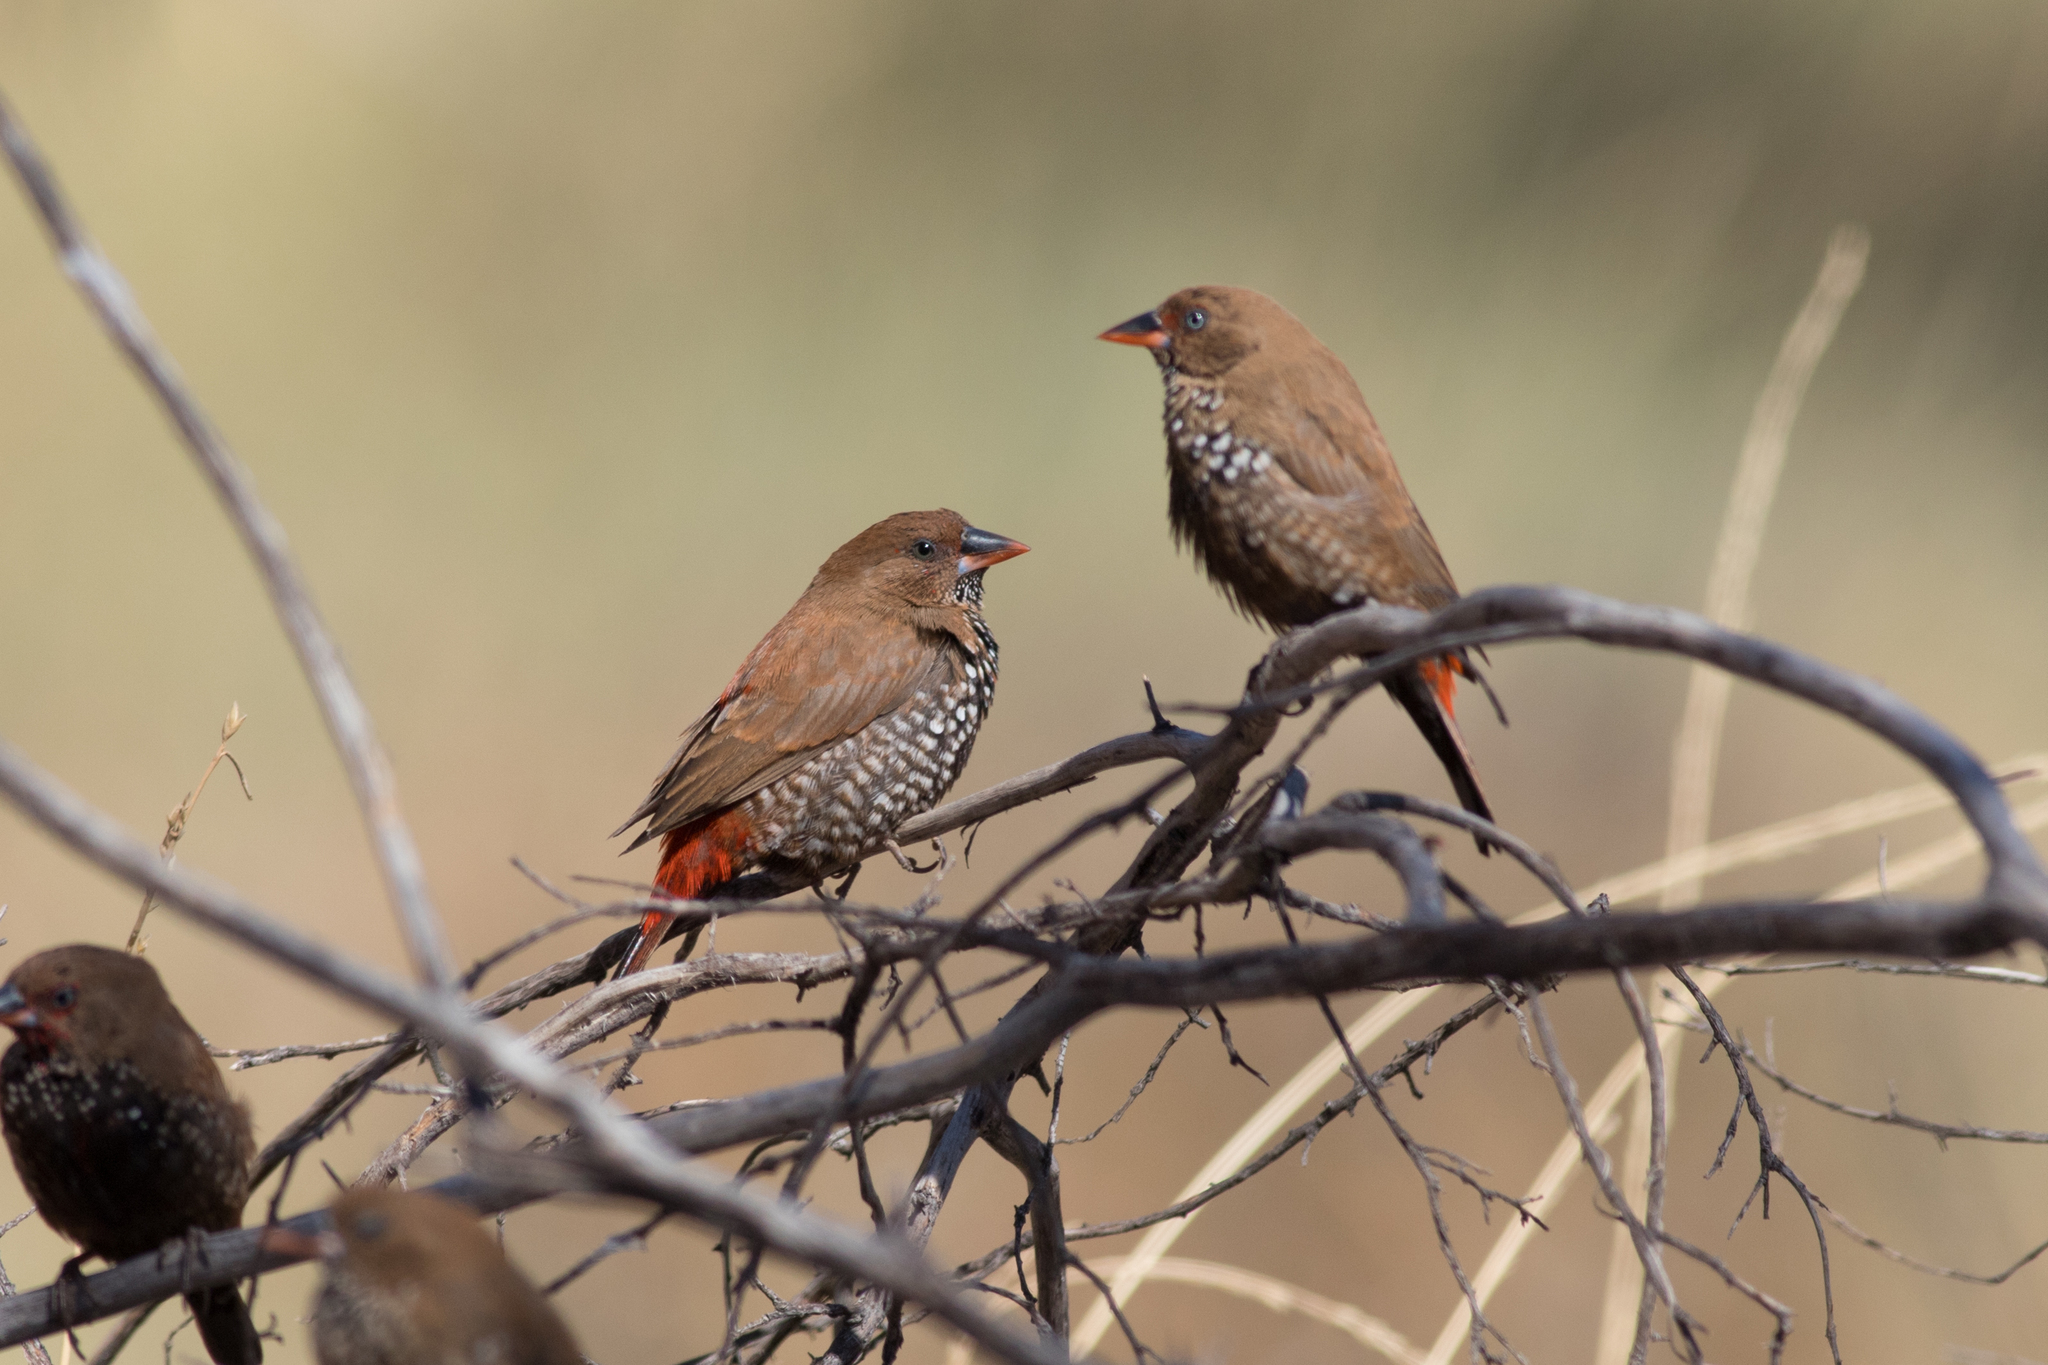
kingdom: Animalia
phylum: Chordata
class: Aves
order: Passeriformes
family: Estrildidae
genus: Emblema
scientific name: Emblema pictum
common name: Painted finch
